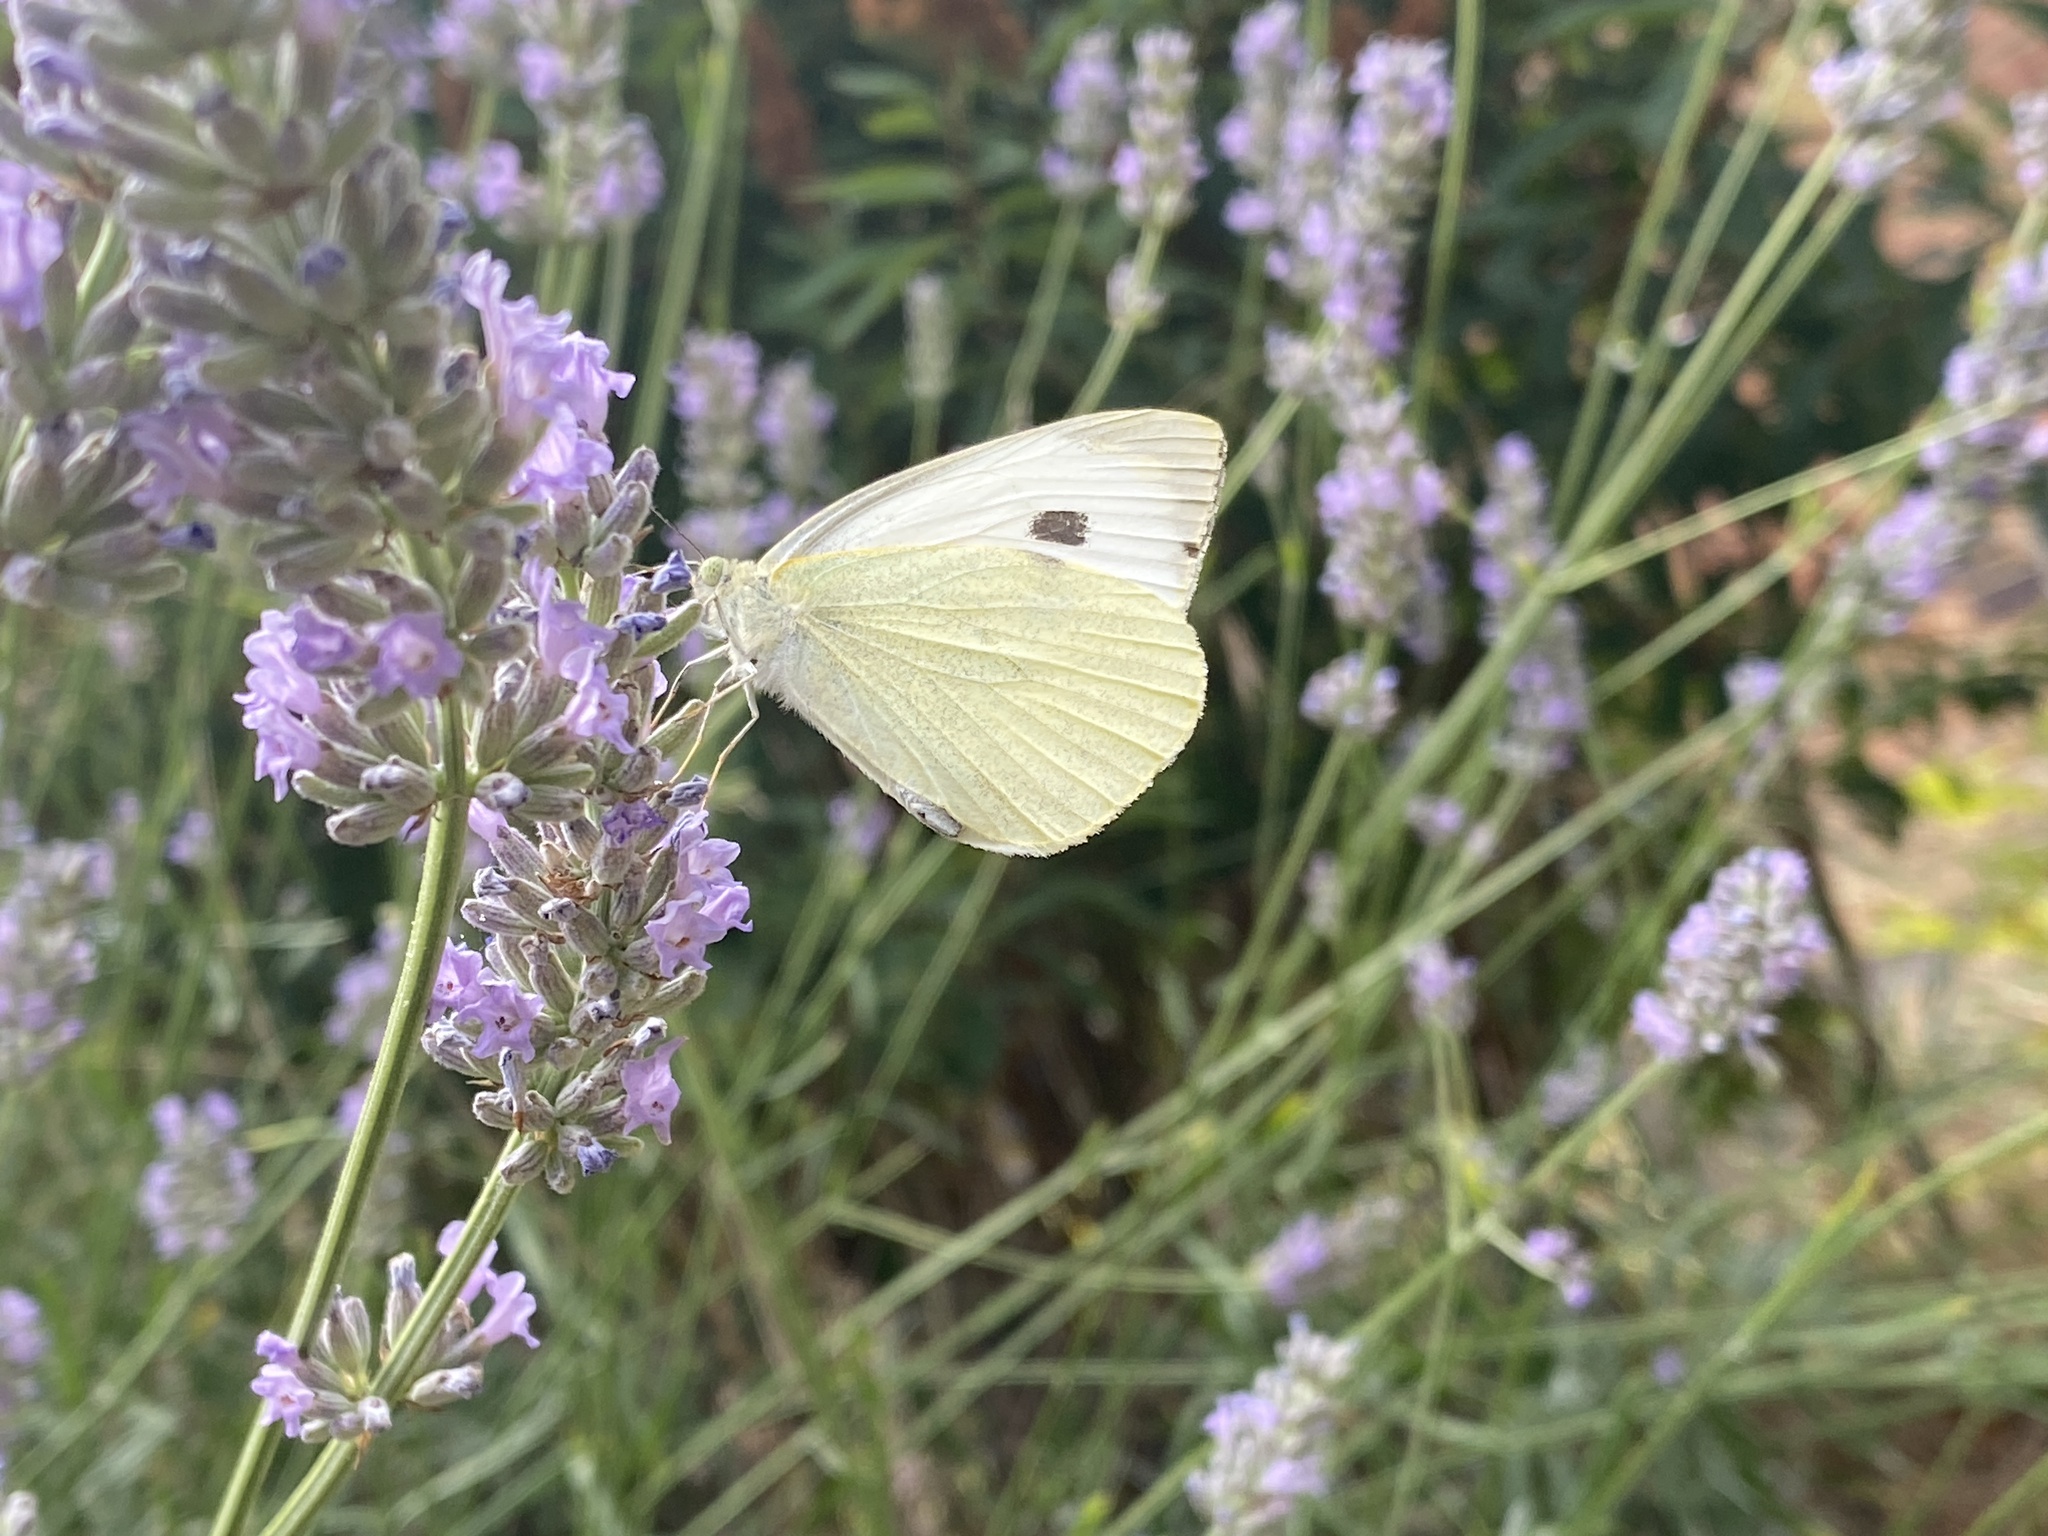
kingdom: Animalia
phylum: Arthropoda
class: Insecta
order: Lepidoptera
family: Pieridae
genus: Pieris
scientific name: Pieris brassicae
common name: Large white
